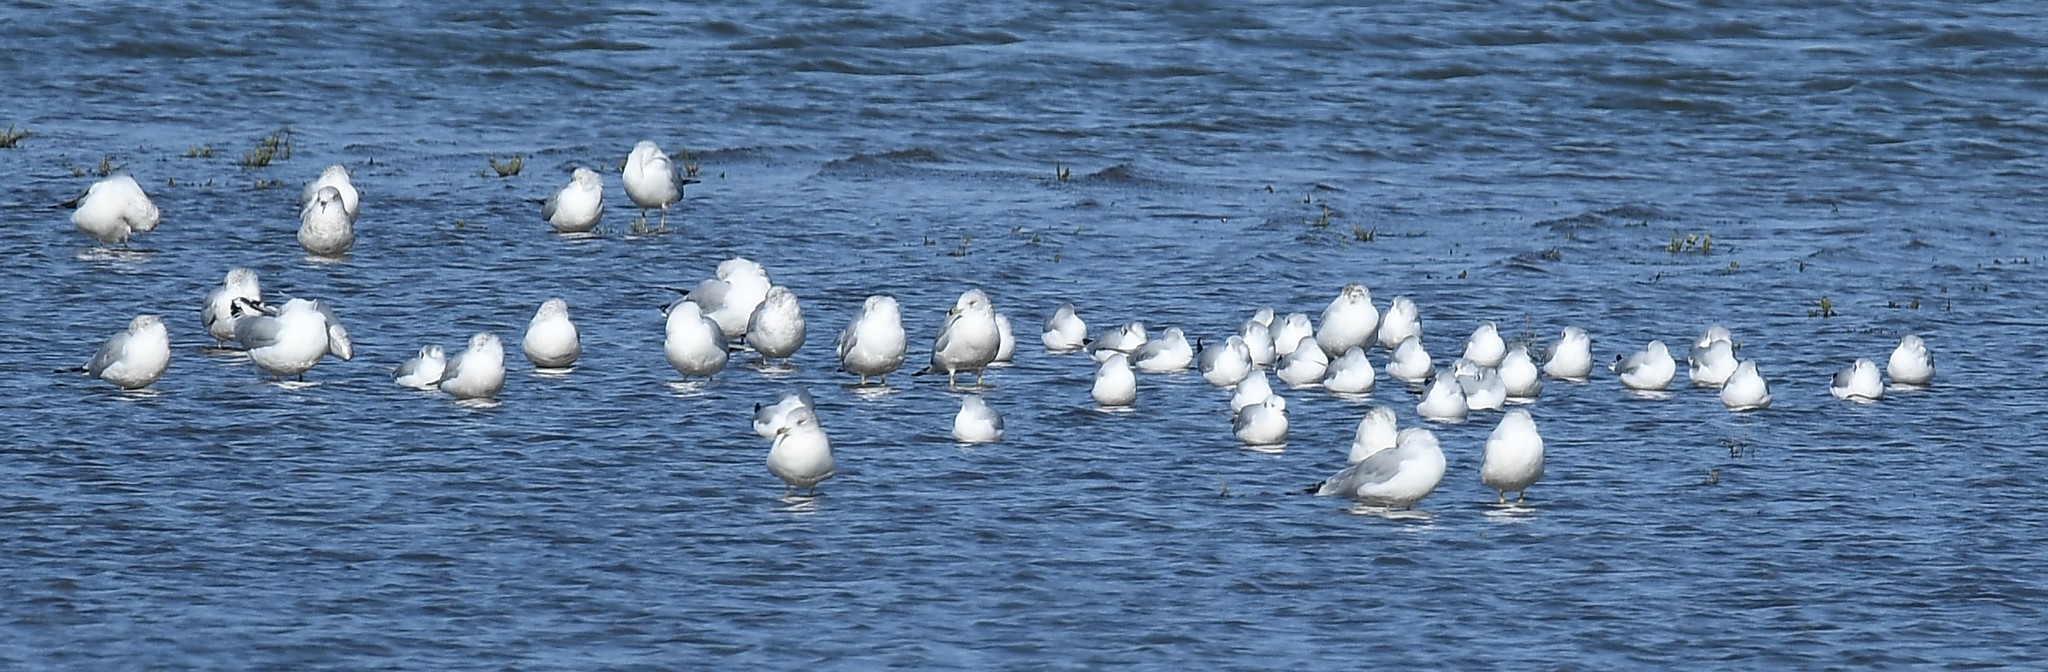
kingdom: Animalia
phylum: Chordata
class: Aves
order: Charadriiformes
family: Laridae
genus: Chroicocephalus
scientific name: Chroicocephalus philadelphia
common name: Bonaparte's gull
